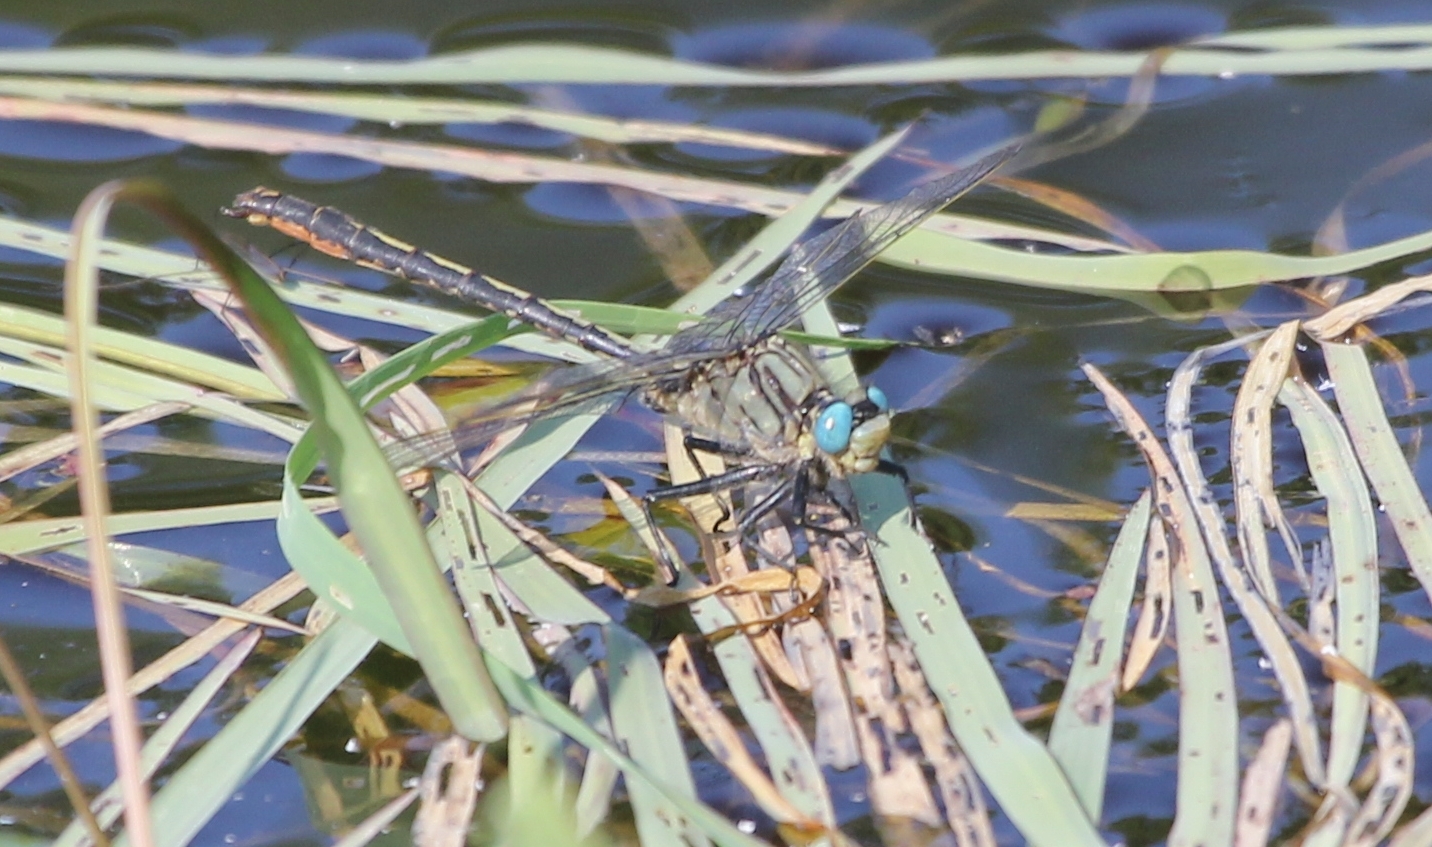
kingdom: Animalia
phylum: Arthropoda
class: Insecta
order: Odonata
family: Gomphidae
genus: Arigomphus
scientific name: Arigomphus furcifer
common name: Lilypad clubtail
